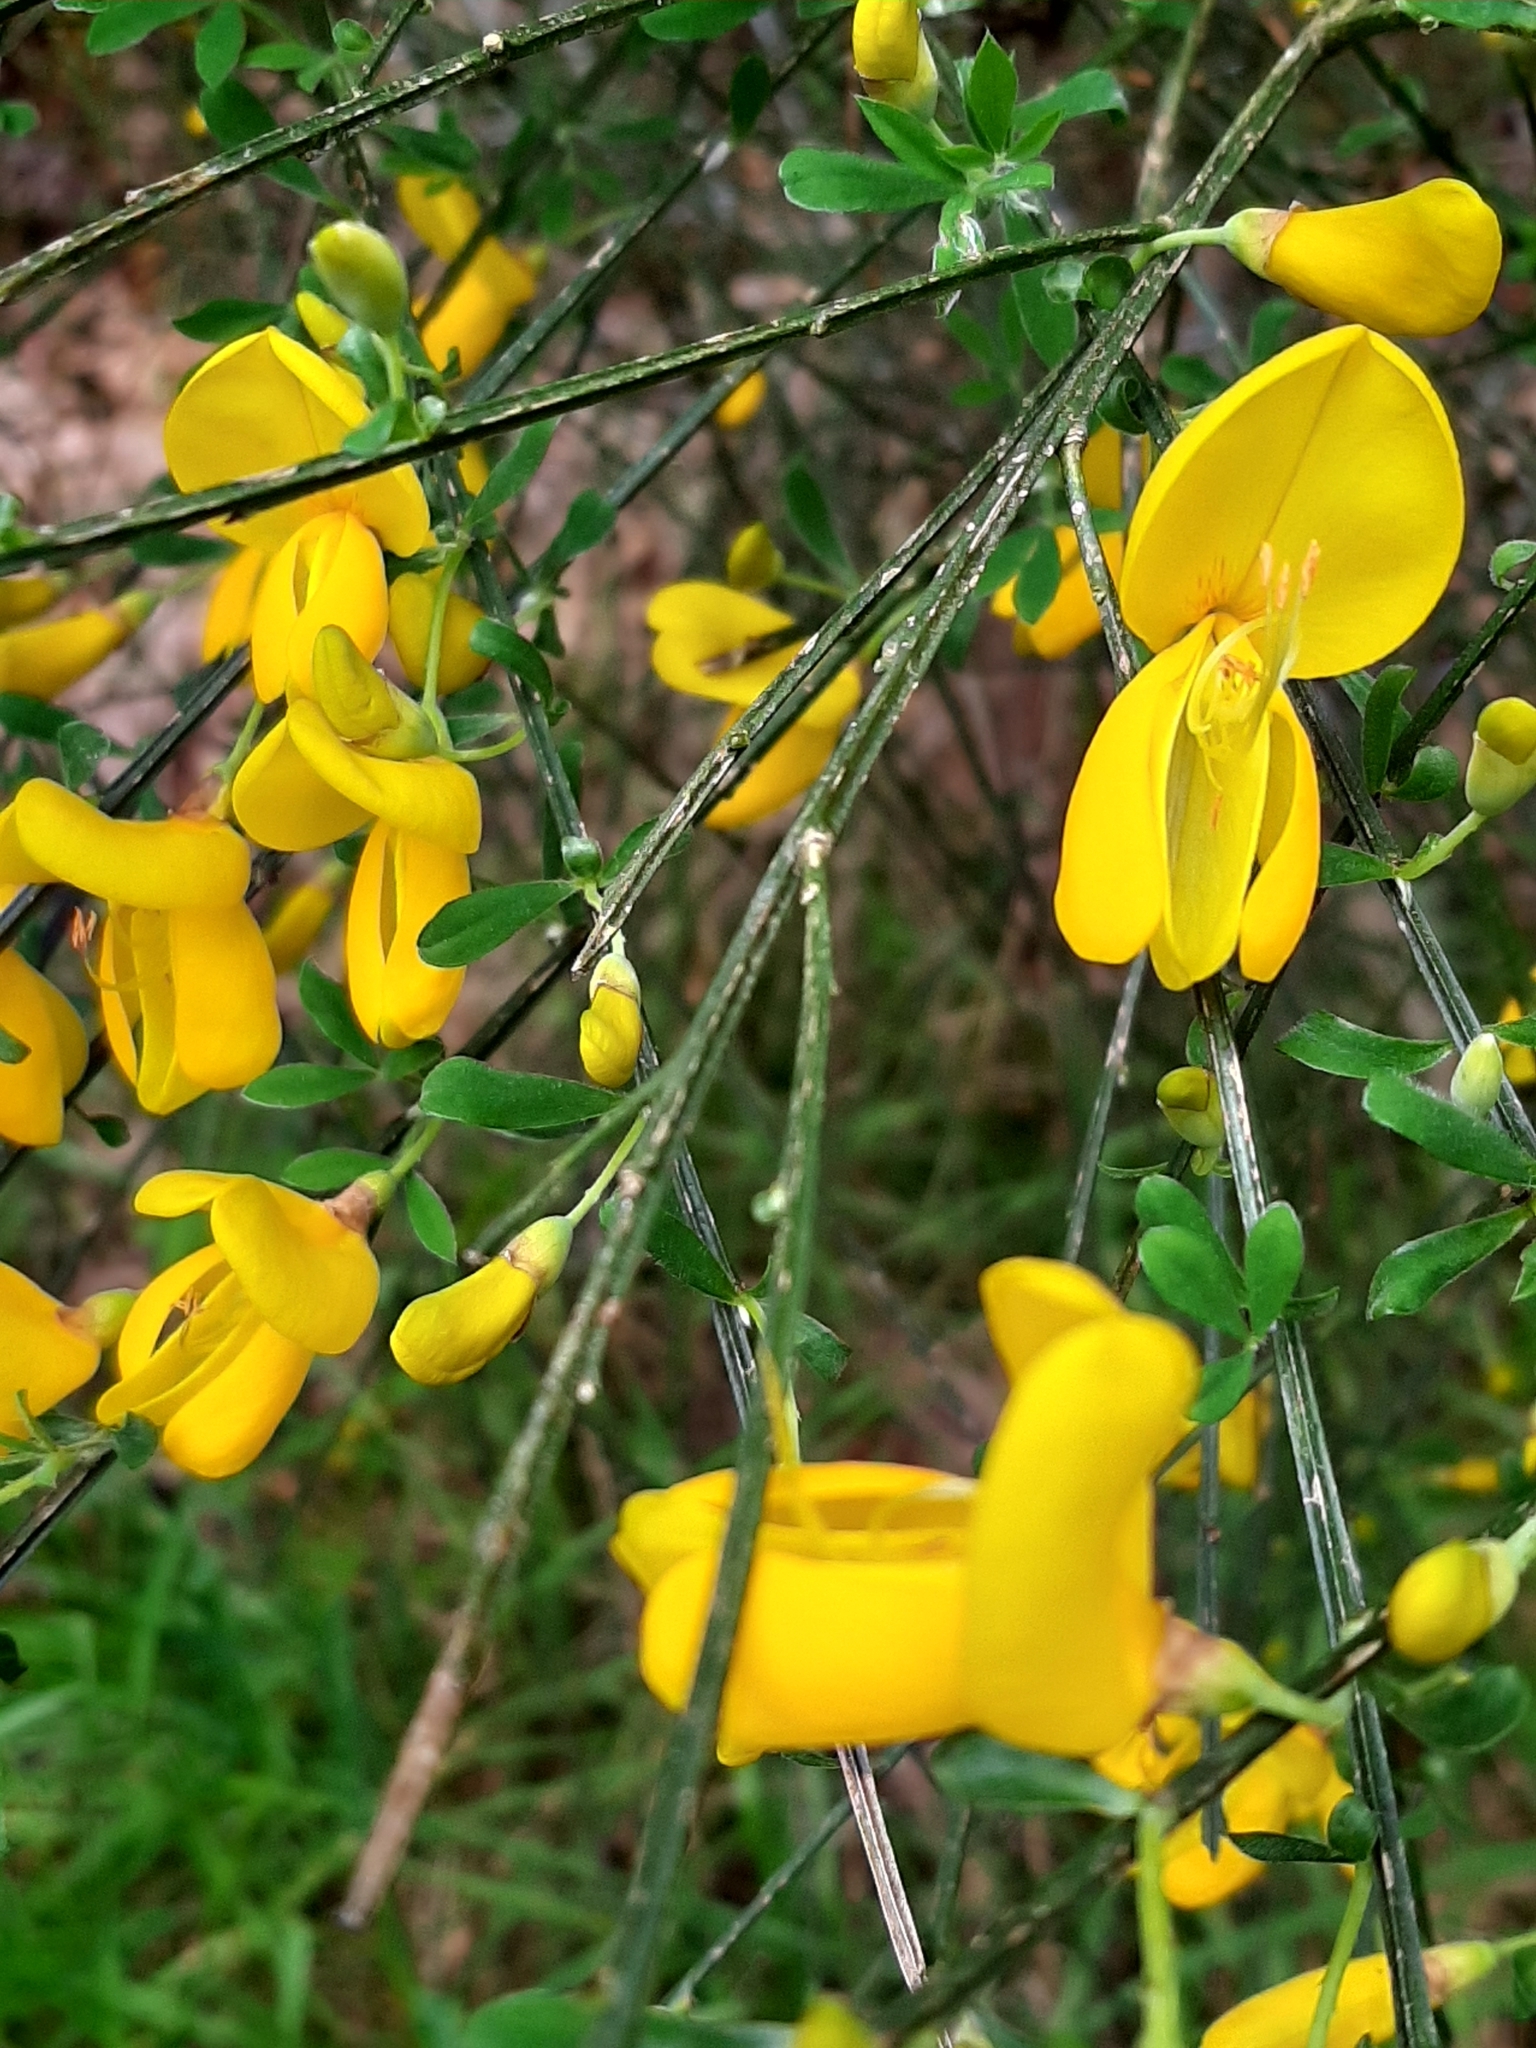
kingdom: Plantae
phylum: Tracheophyta
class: Magnoliopsida
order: Fabales
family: Fabaceae
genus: Cytisus
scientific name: Cytisus scoparius
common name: Scotch broom
